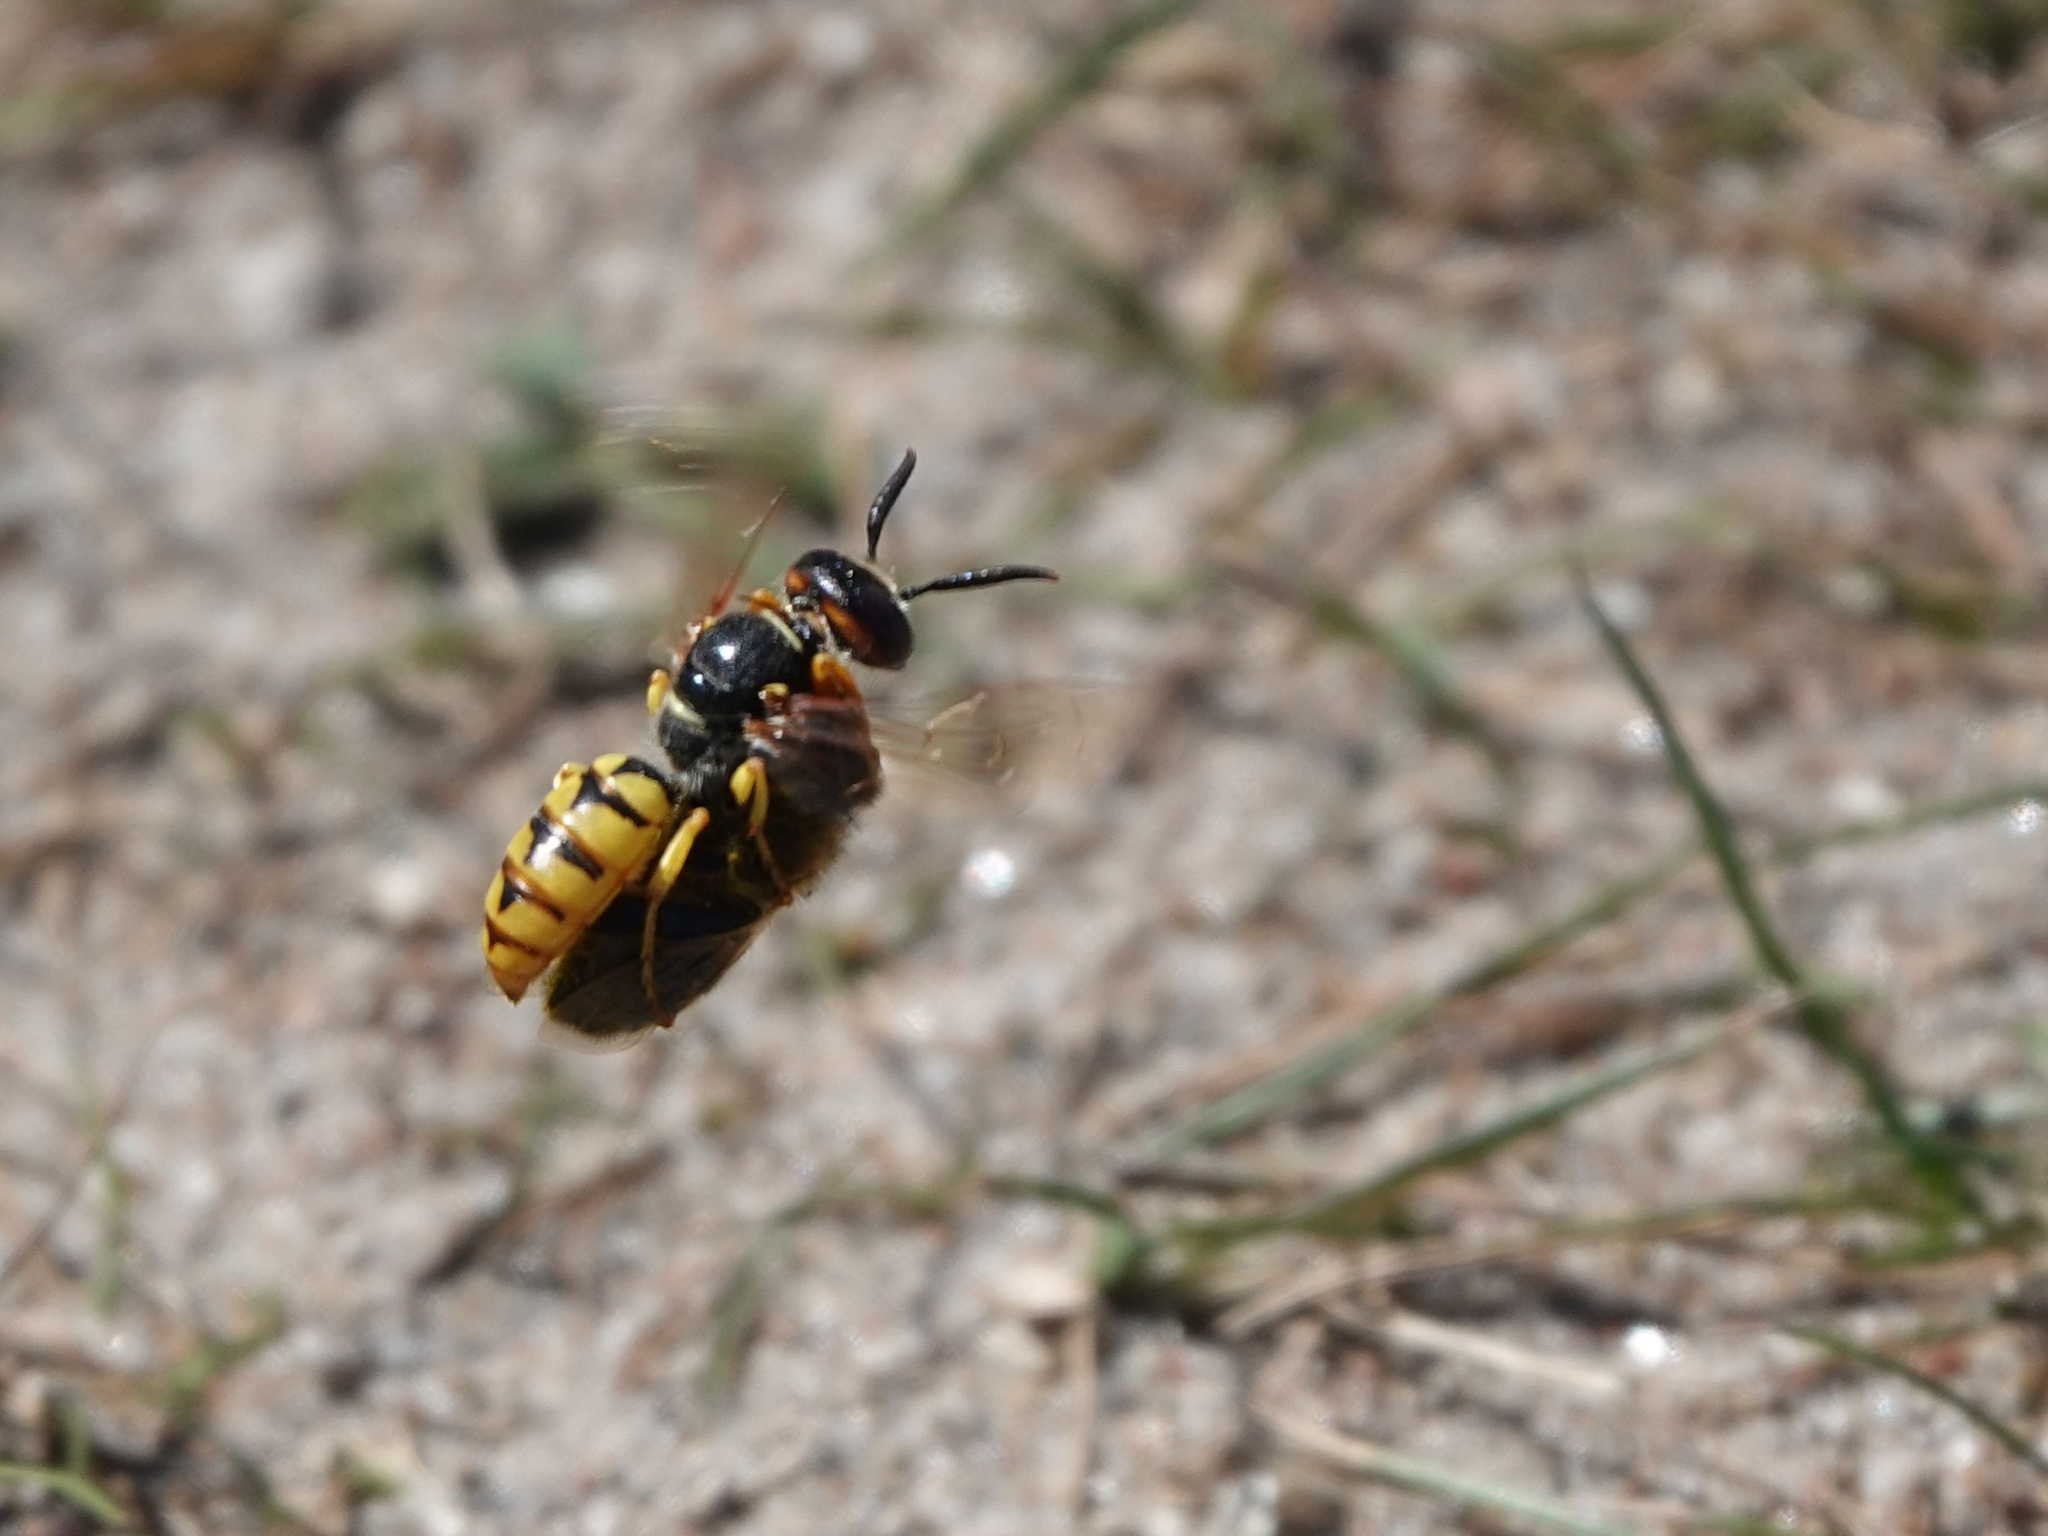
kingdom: Animalia
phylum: Arthropoda
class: Insecta
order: Hymenoptera
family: Crabronidae
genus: Philanthus
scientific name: Philanthus triangulum
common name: Bee wolf
